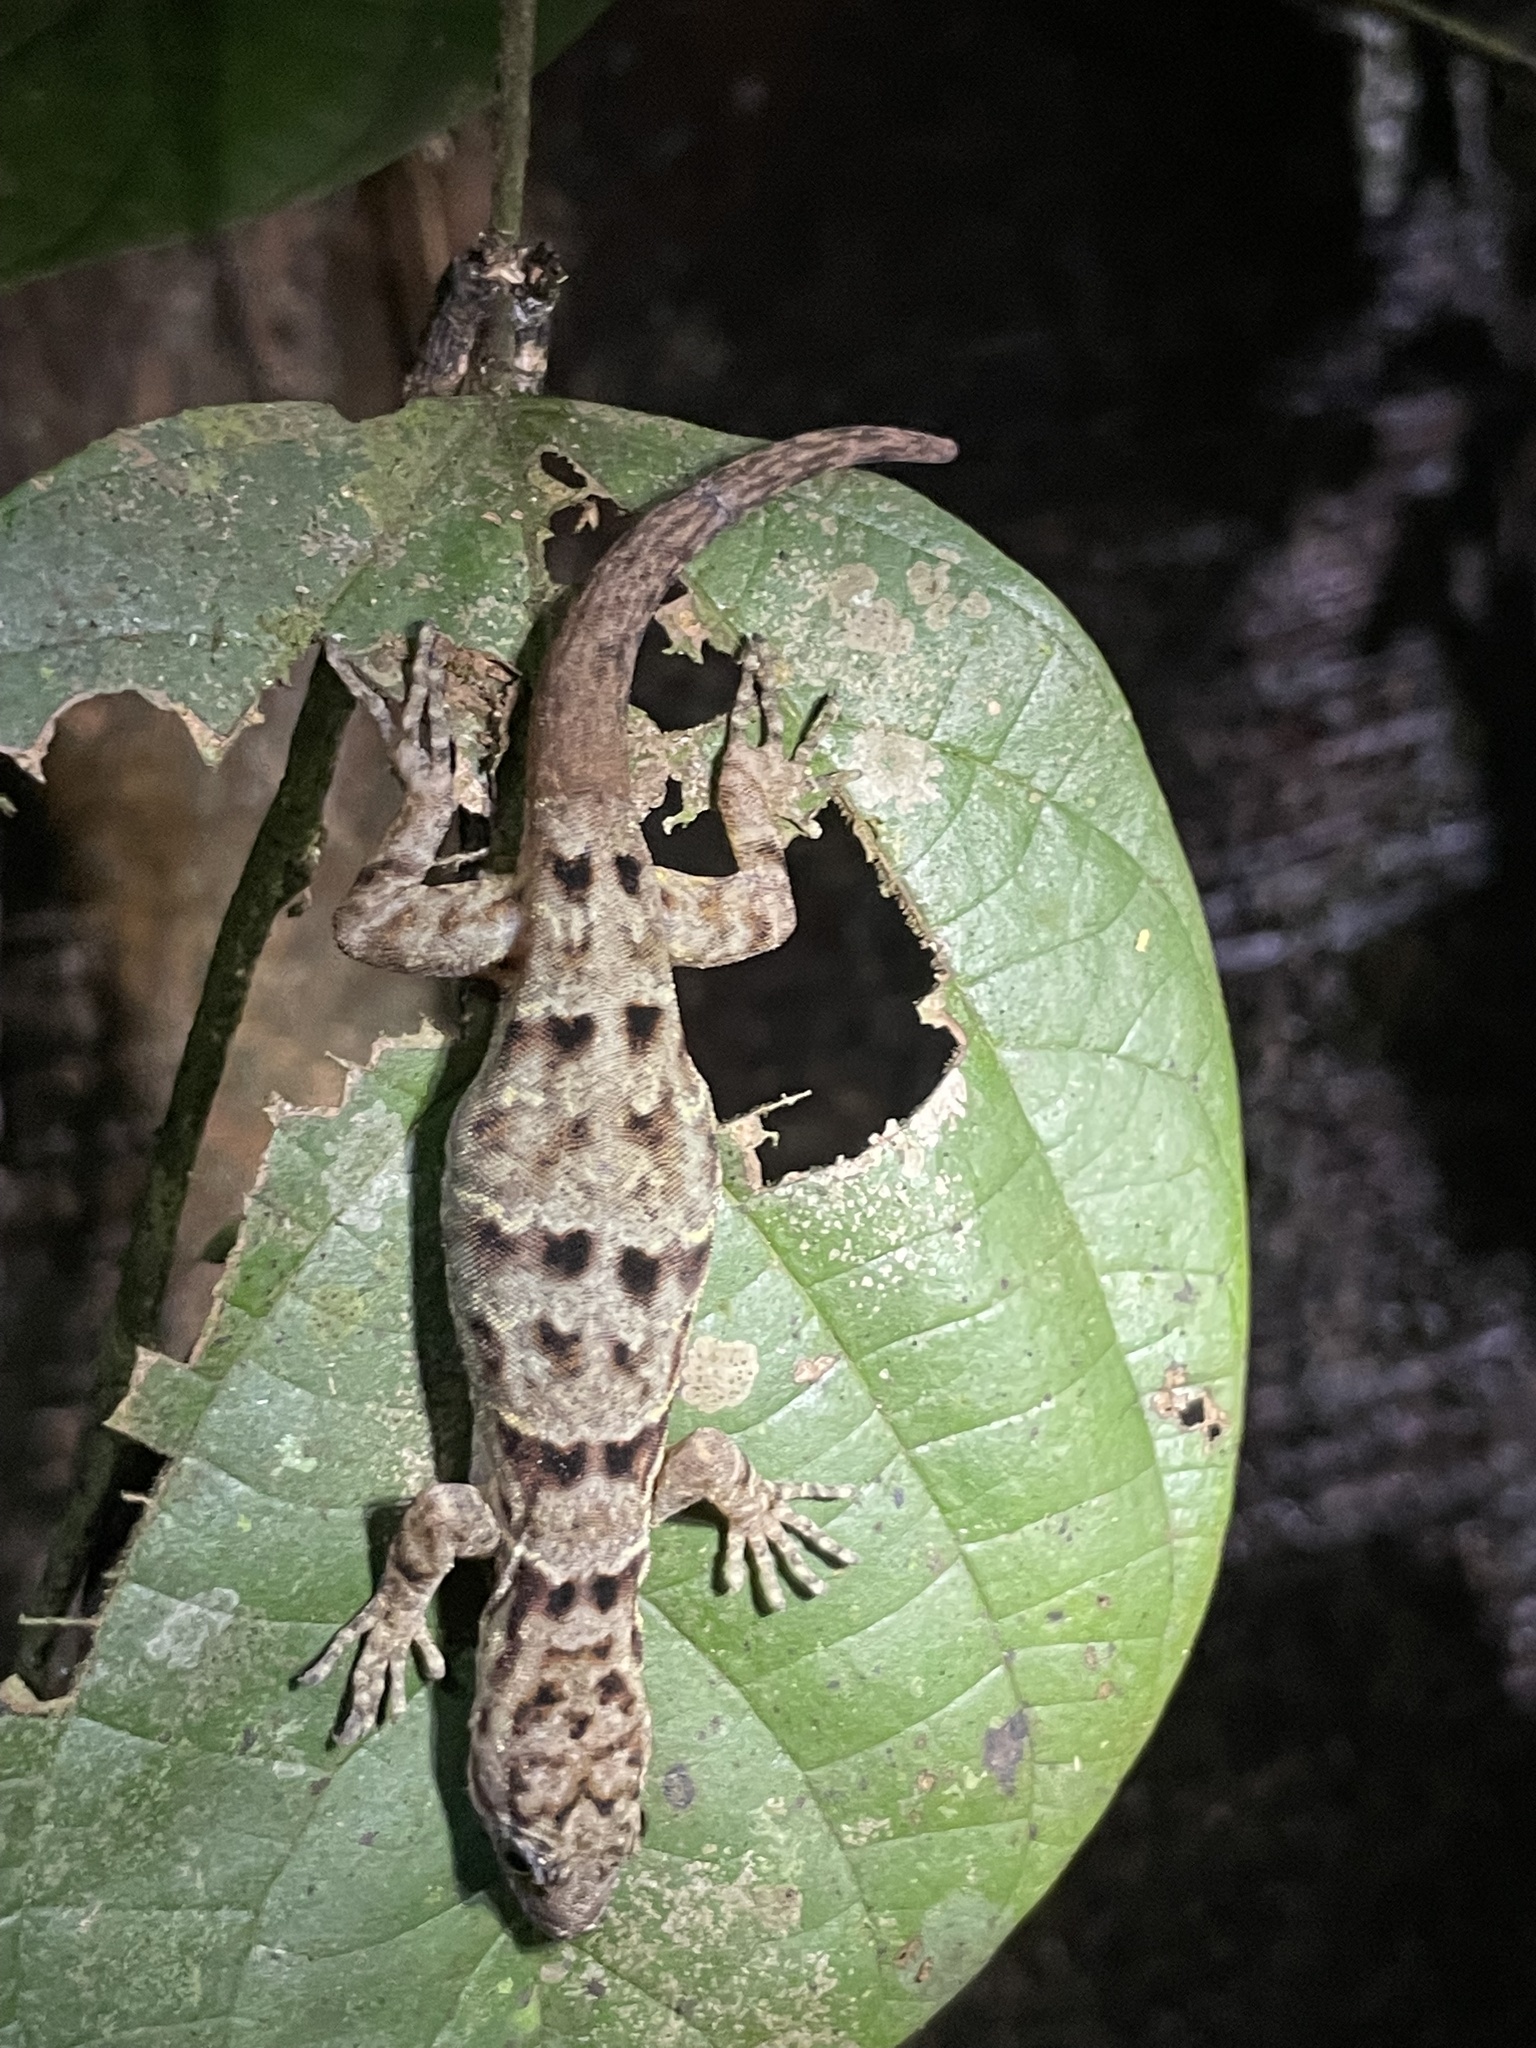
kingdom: Animalia
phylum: Chordata
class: Squamata
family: Sphaerodactylidae
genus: Gonatodes
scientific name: Gonatodes concinnatus
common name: O'shaughnessy's gecko
